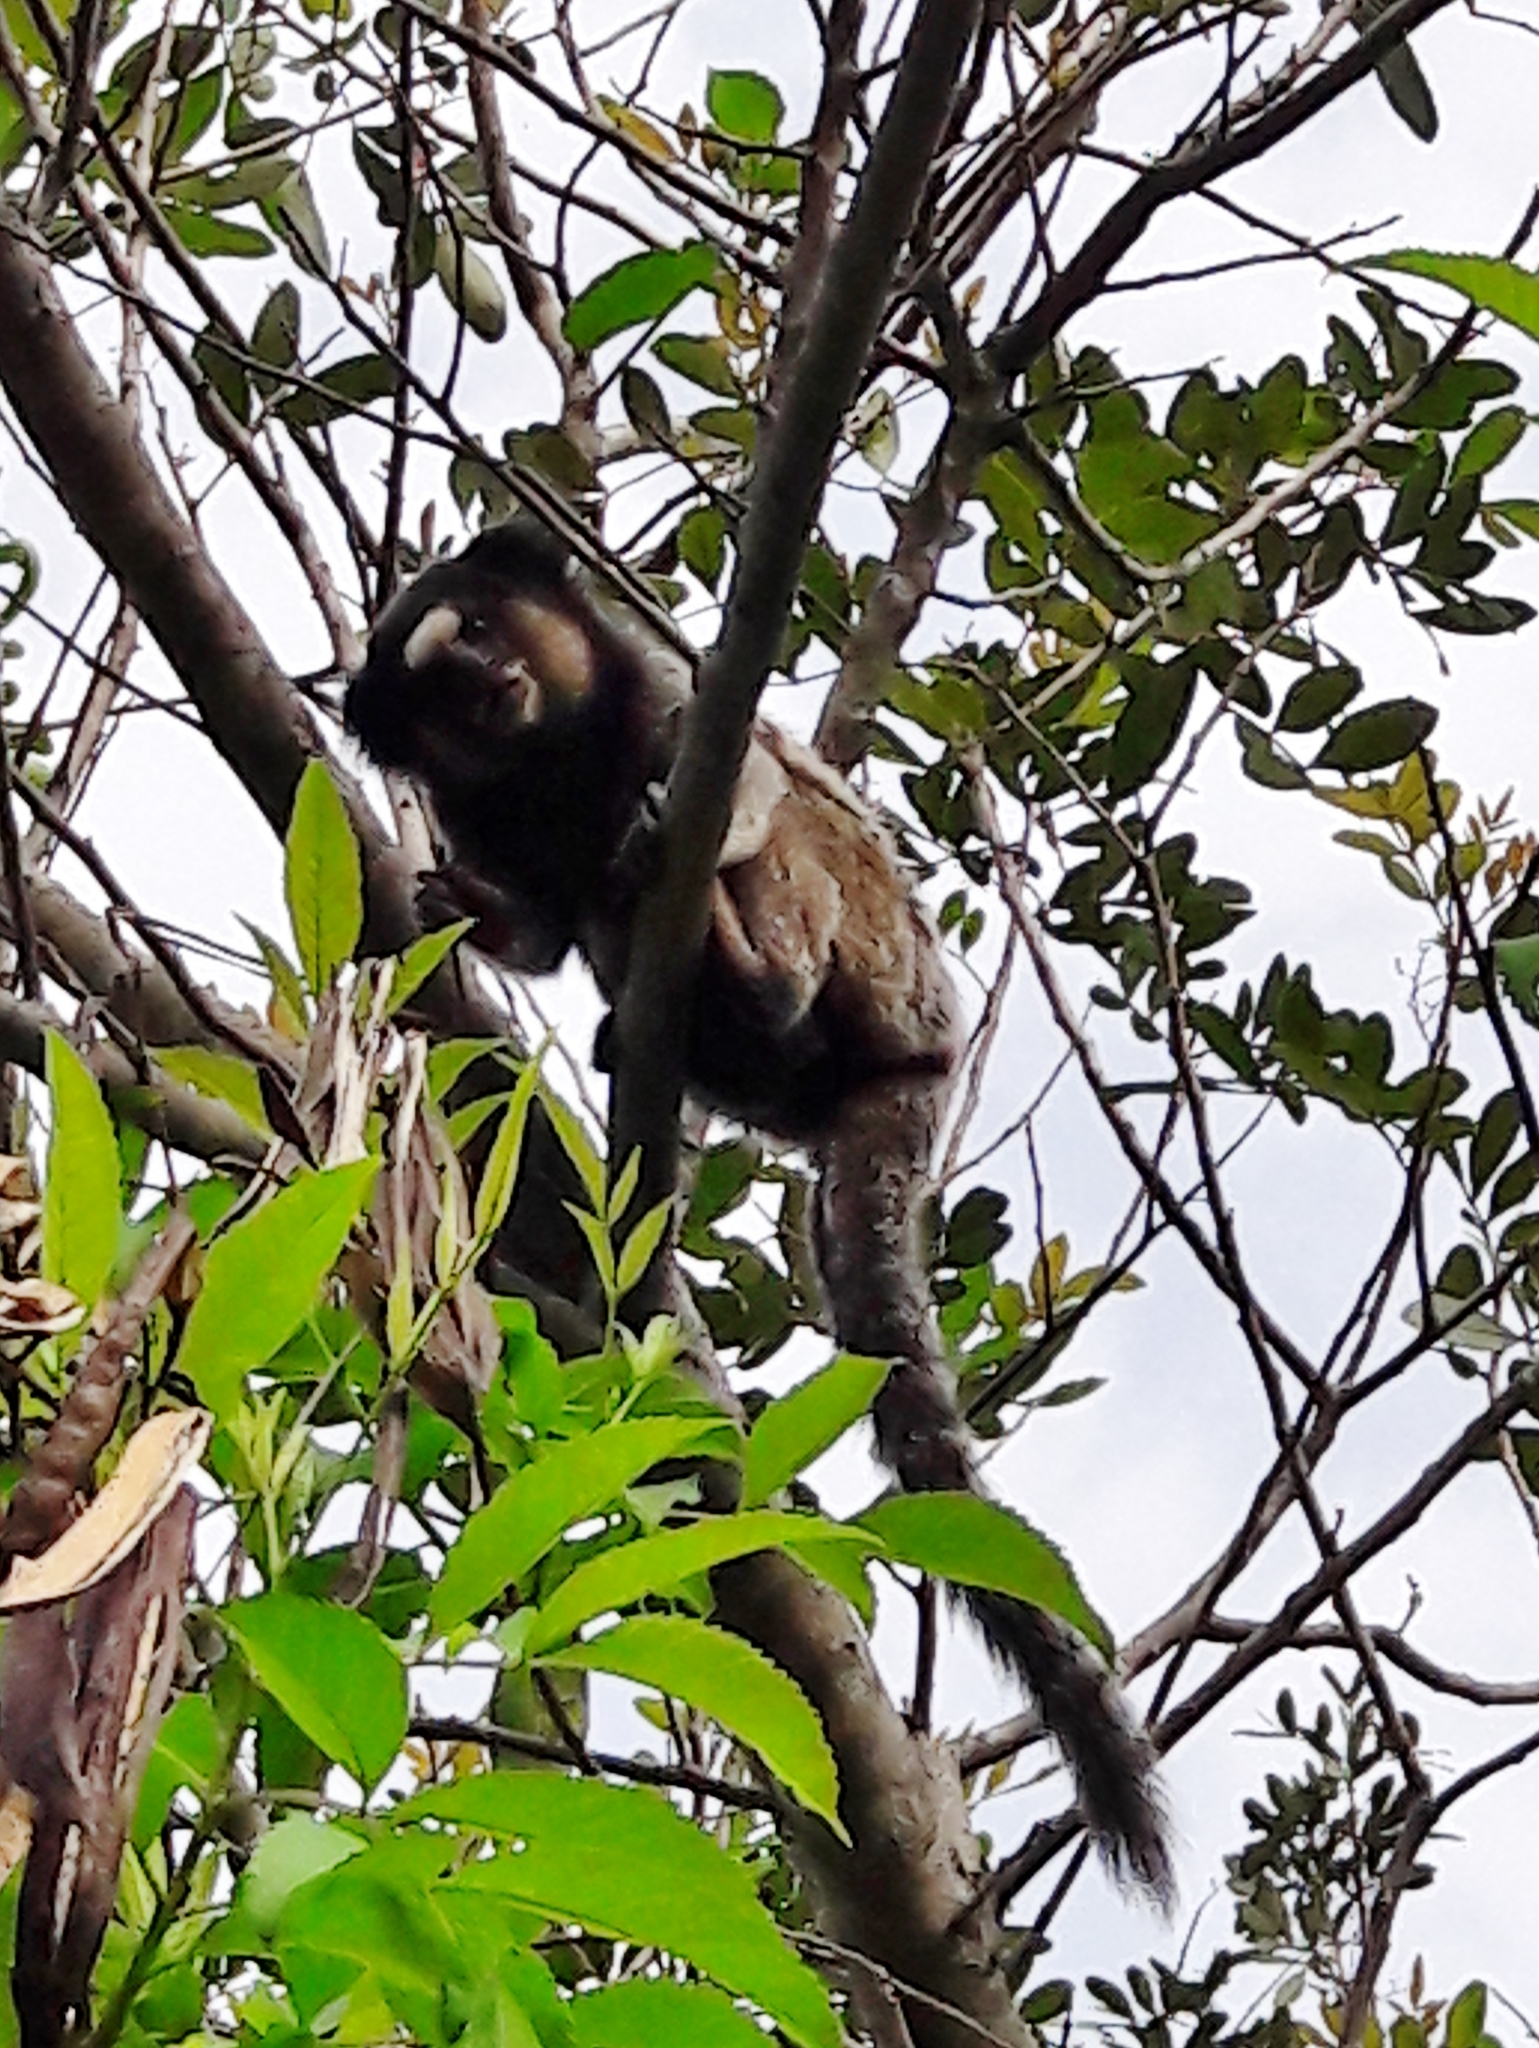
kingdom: Animalia
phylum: Chordata
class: Mammalia
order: Primates
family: Callitrichidae
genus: Callithrix
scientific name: Callithrix penicillata
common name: Black-tufted marmoset
